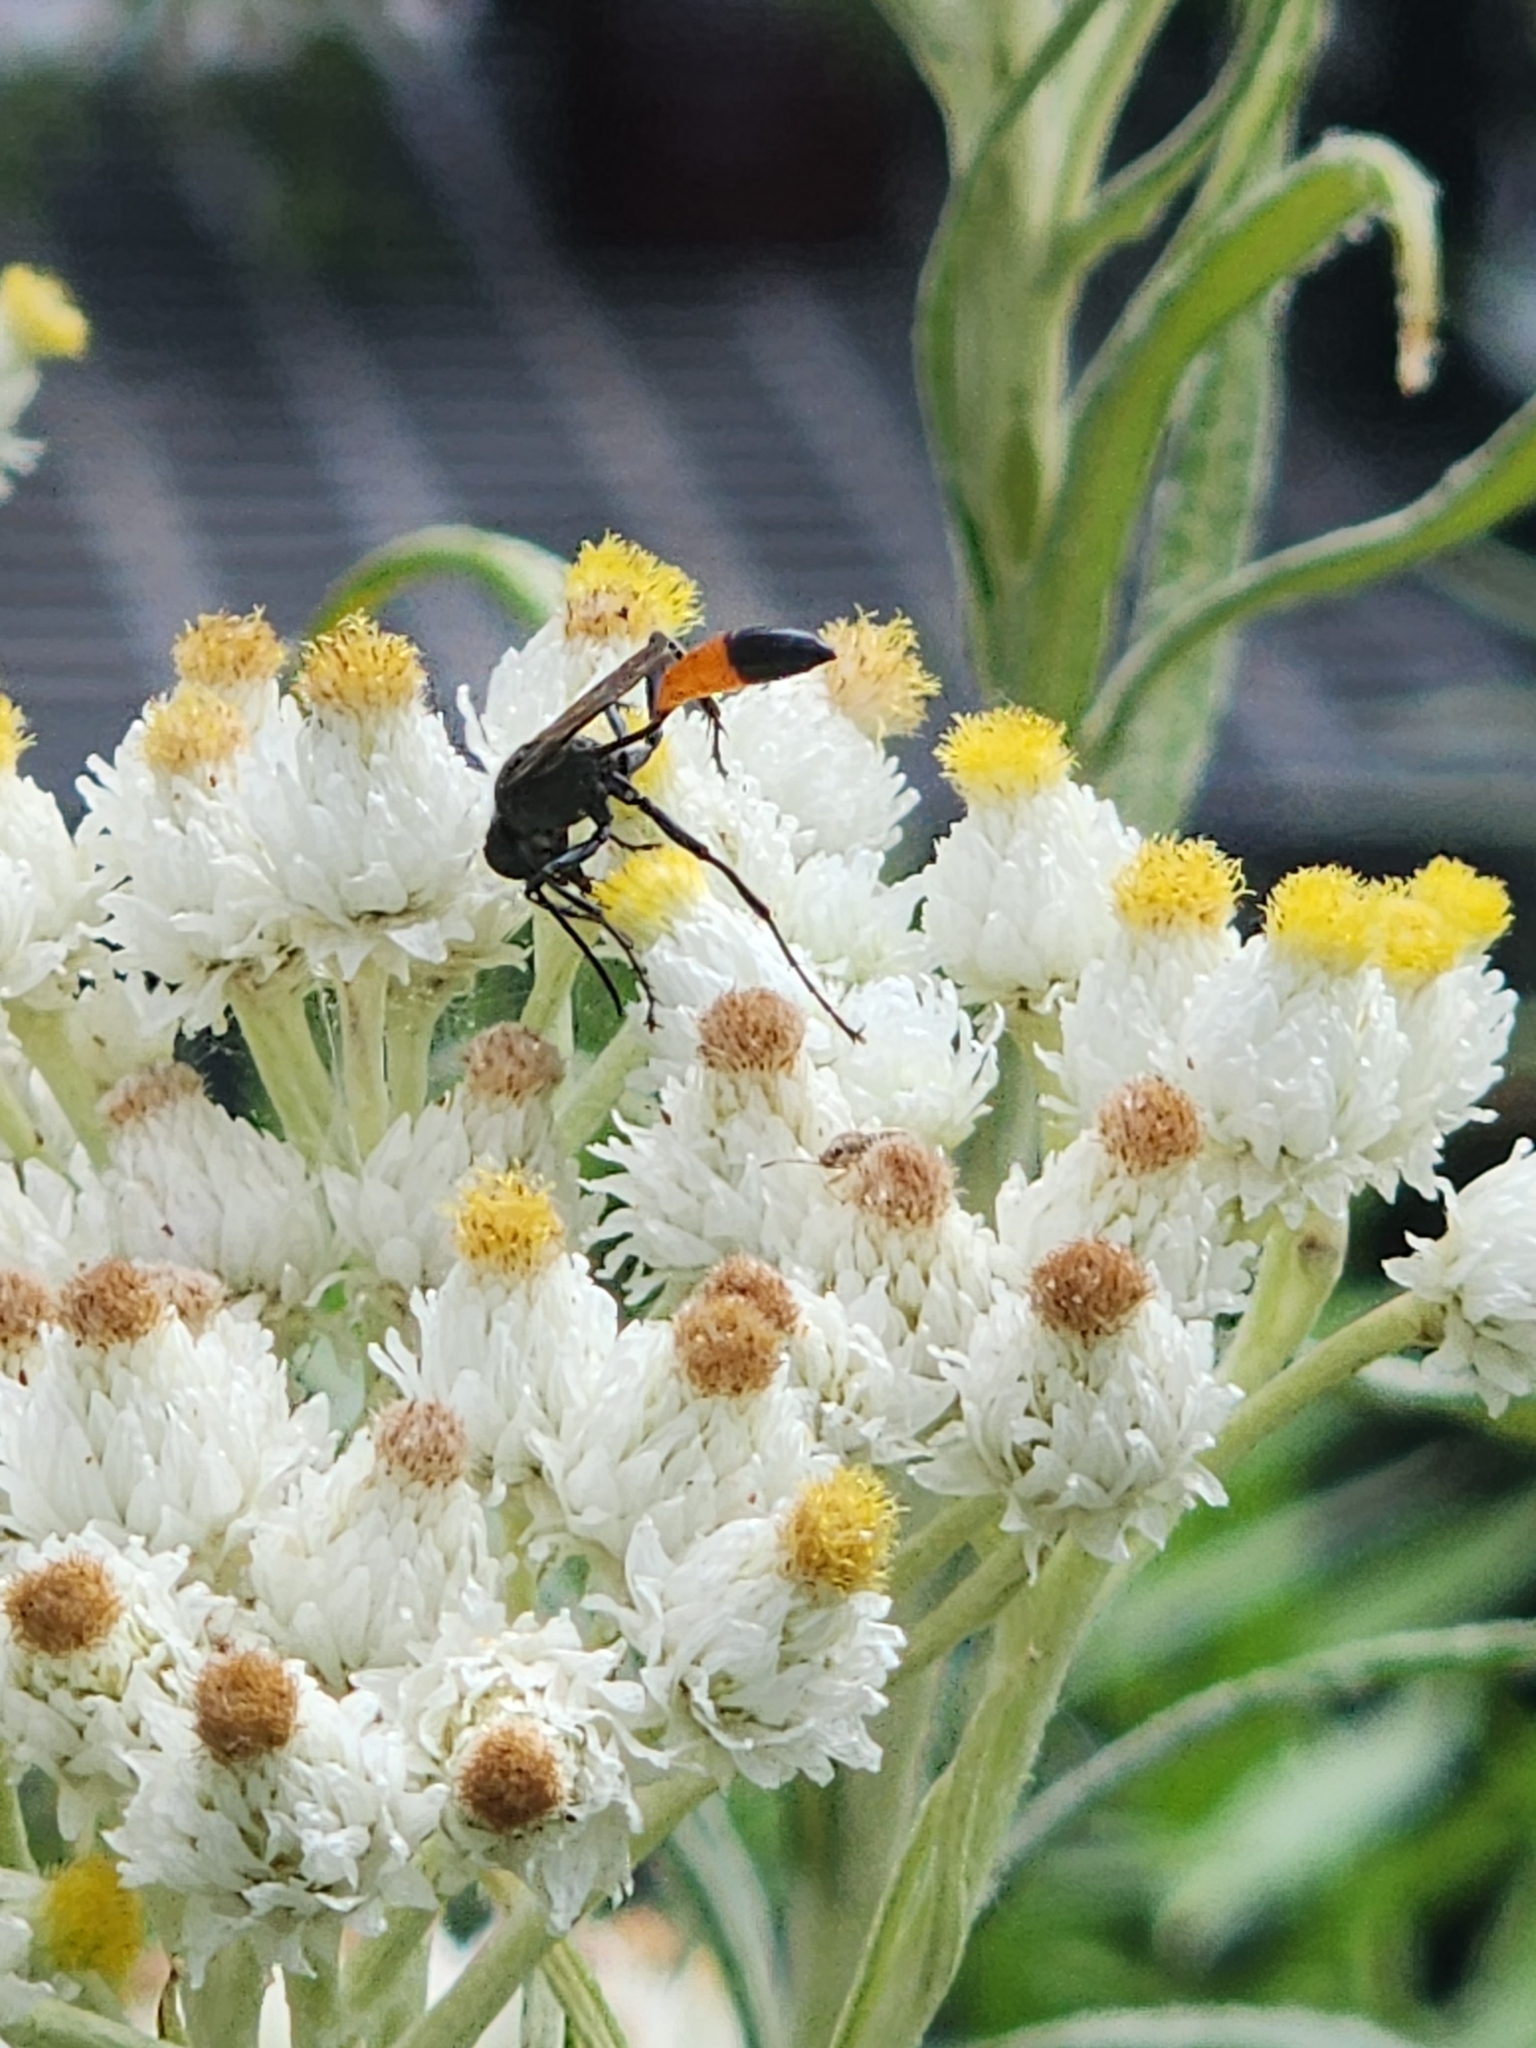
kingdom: Animalia
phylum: Arthropoda
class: Insecta
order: Hymenoptera
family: Sphecidae
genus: Ammophila
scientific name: Ammophila procera
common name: Common thread-waisted wasp
